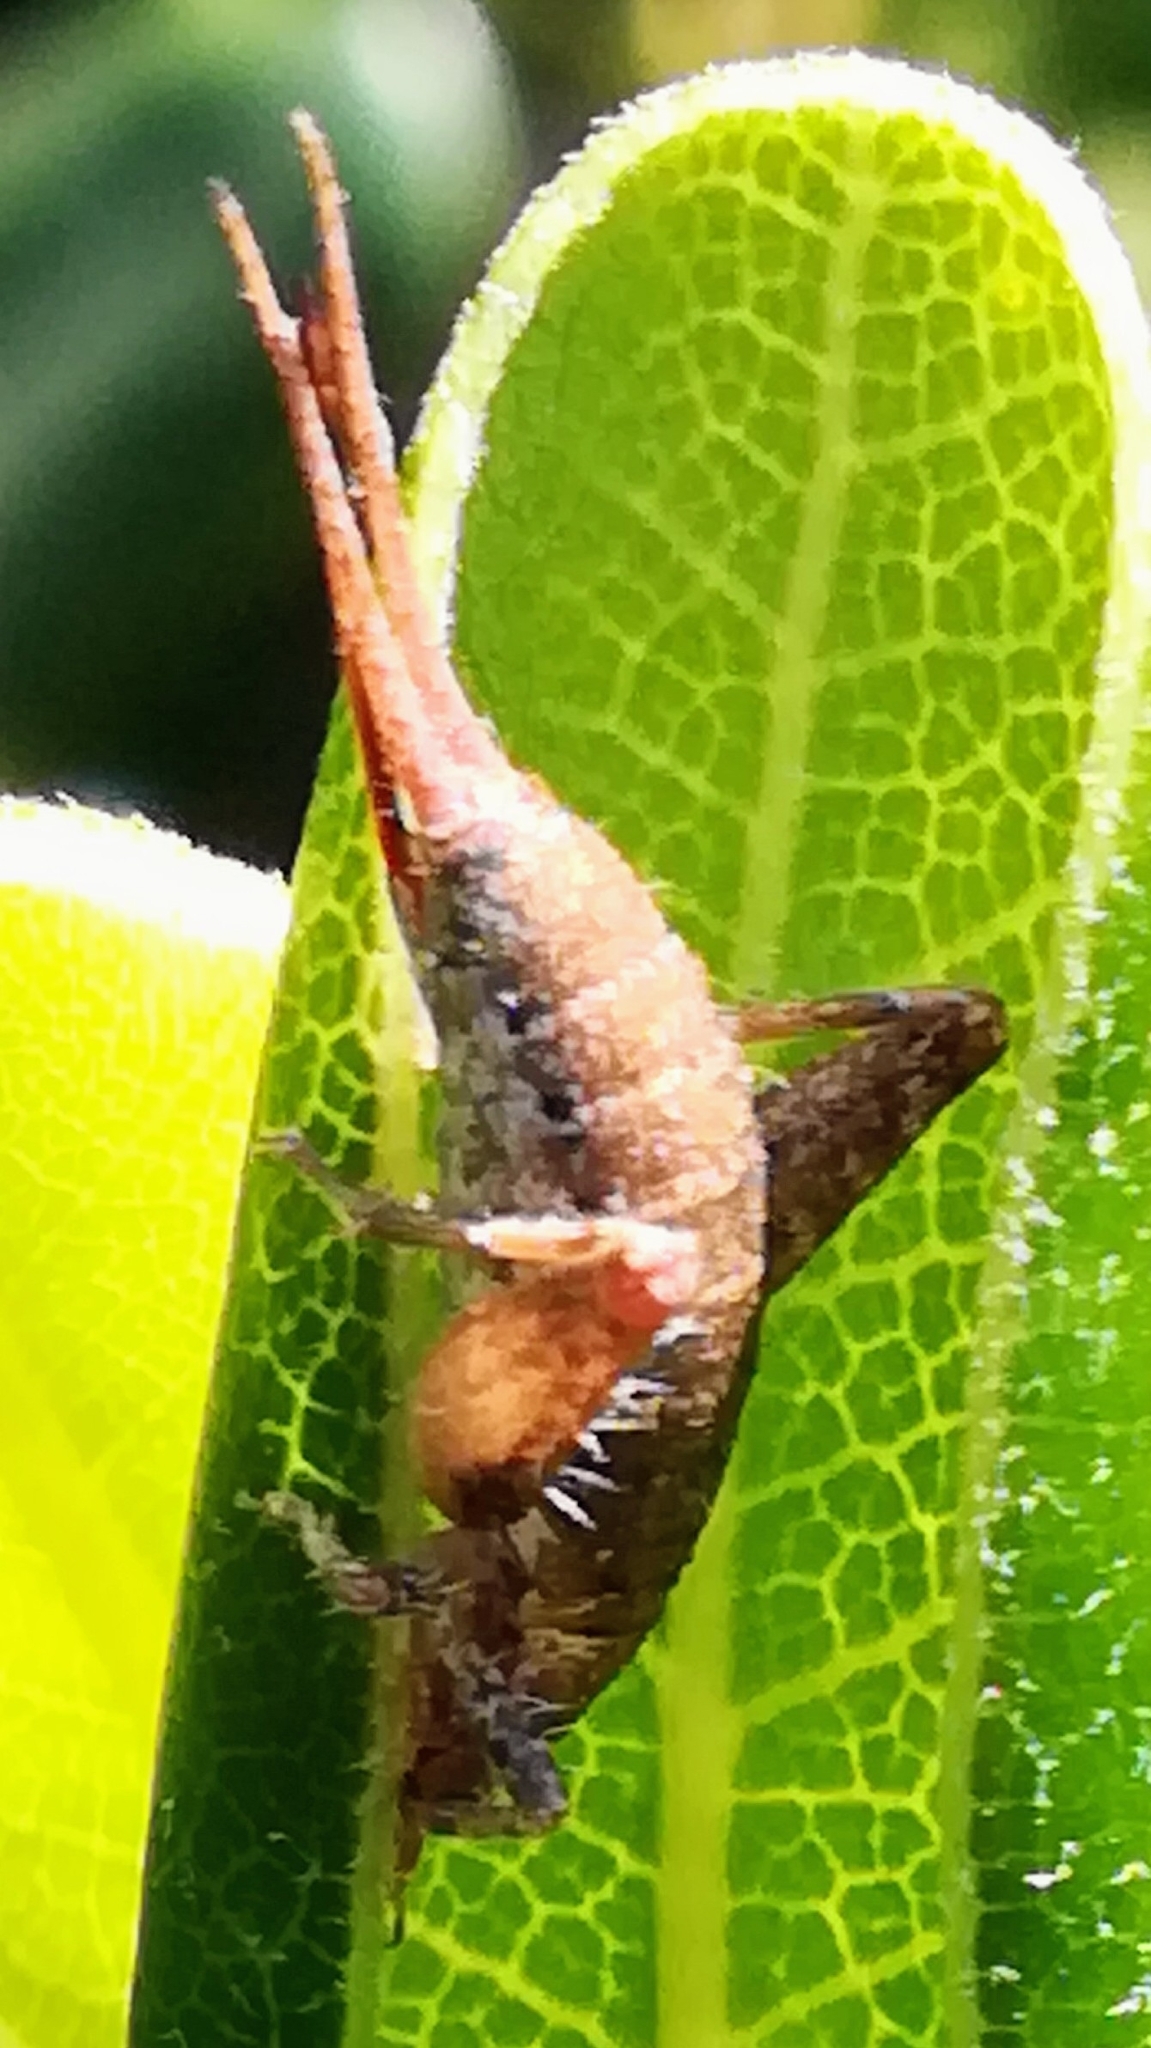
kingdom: Animalia
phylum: Arthropoda
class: Insecta
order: Orthoptera
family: Mogoplistidae
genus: Arachnocephalus
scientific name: Arachnocephalus vestitus
